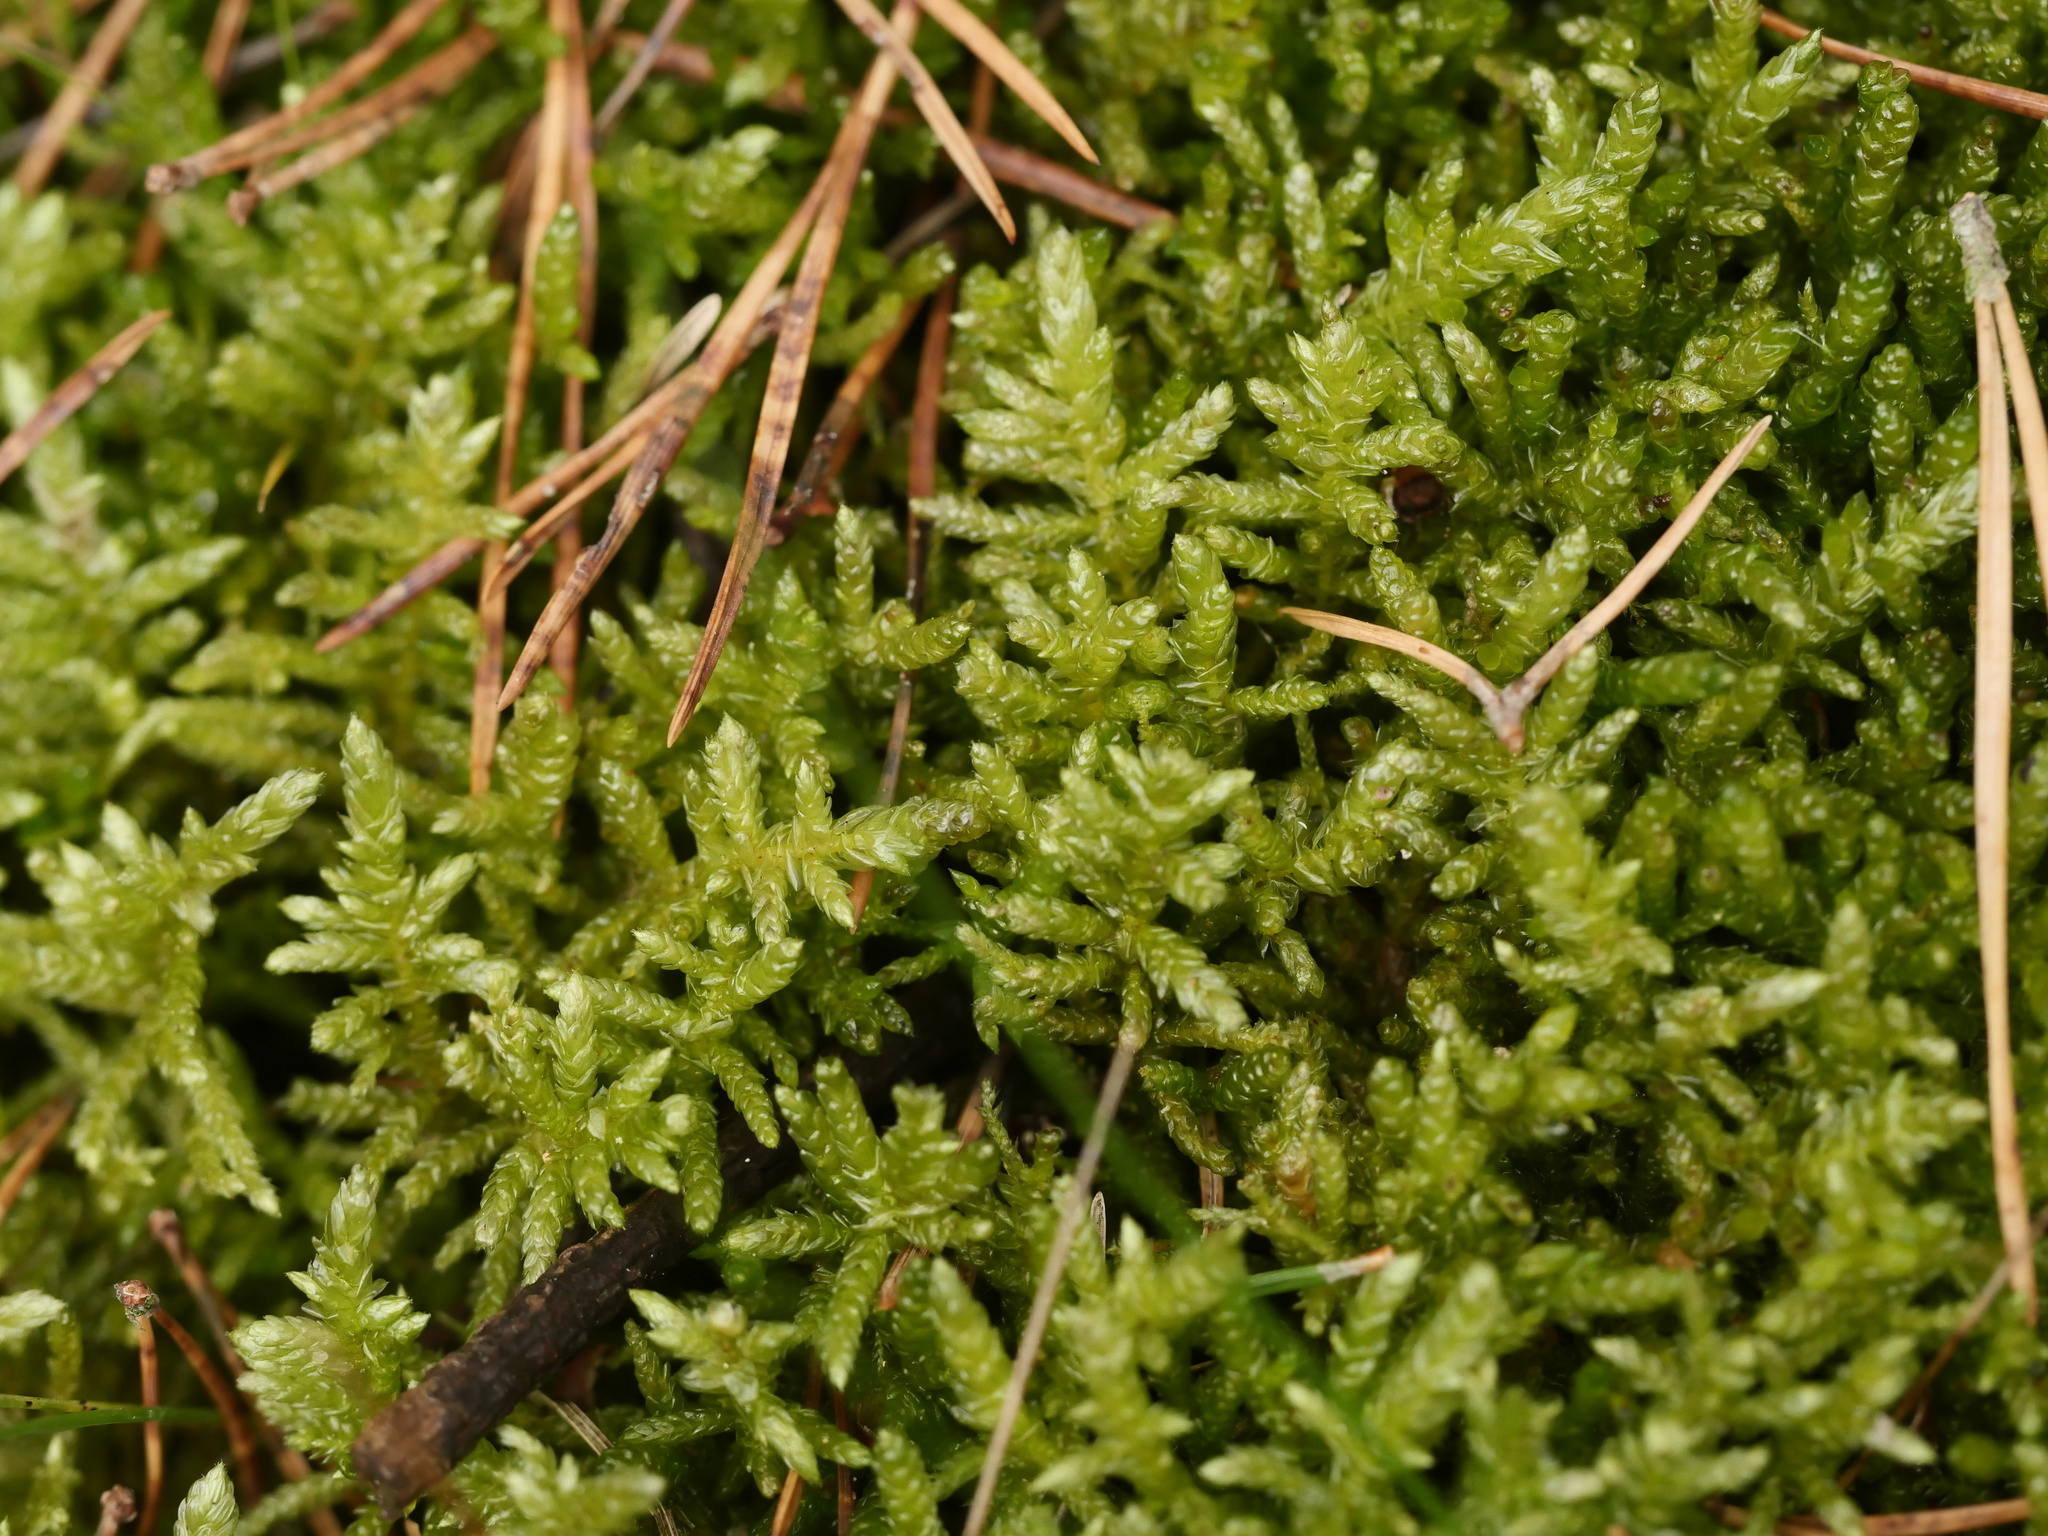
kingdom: Plantae
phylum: Bryophyta
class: Bryopsida
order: Hypnales
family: Brachytheciaceae
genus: Pseudoscleropodium
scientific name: Pseudoscleropodium purum
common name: Neat feather-moss
